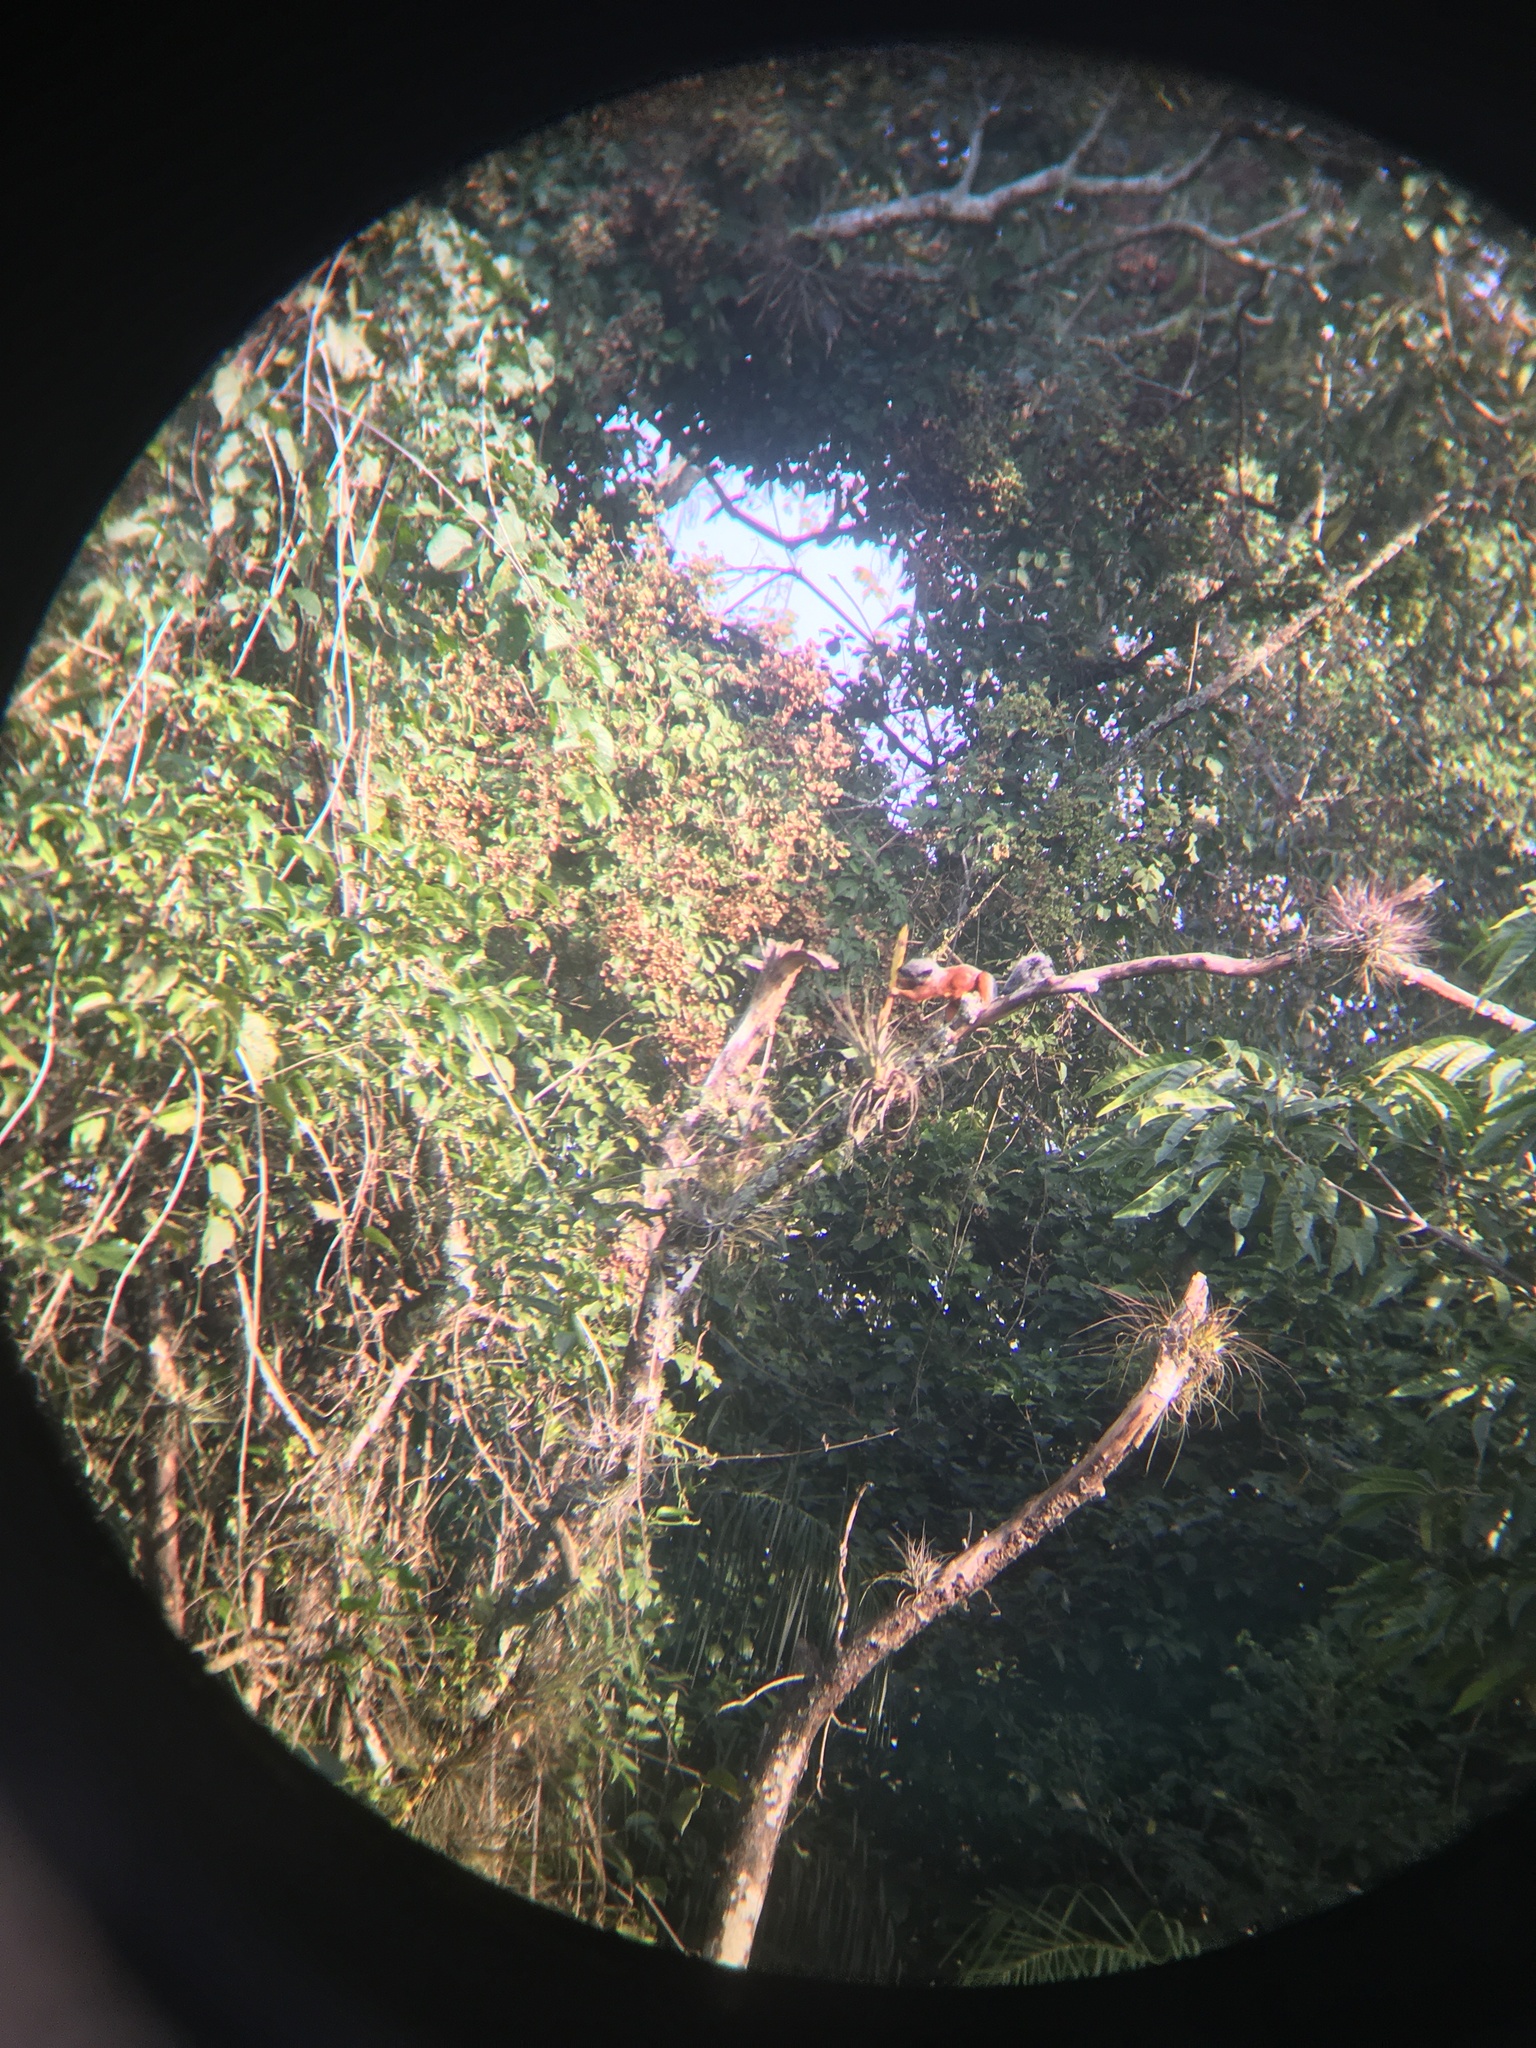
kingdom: Animalia
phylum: Chordata
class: Mammalia
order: Rodentia
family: Sciuridae
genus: Sciurus
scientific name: Sciurus aureogaster
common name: Red-bellied squirrel
